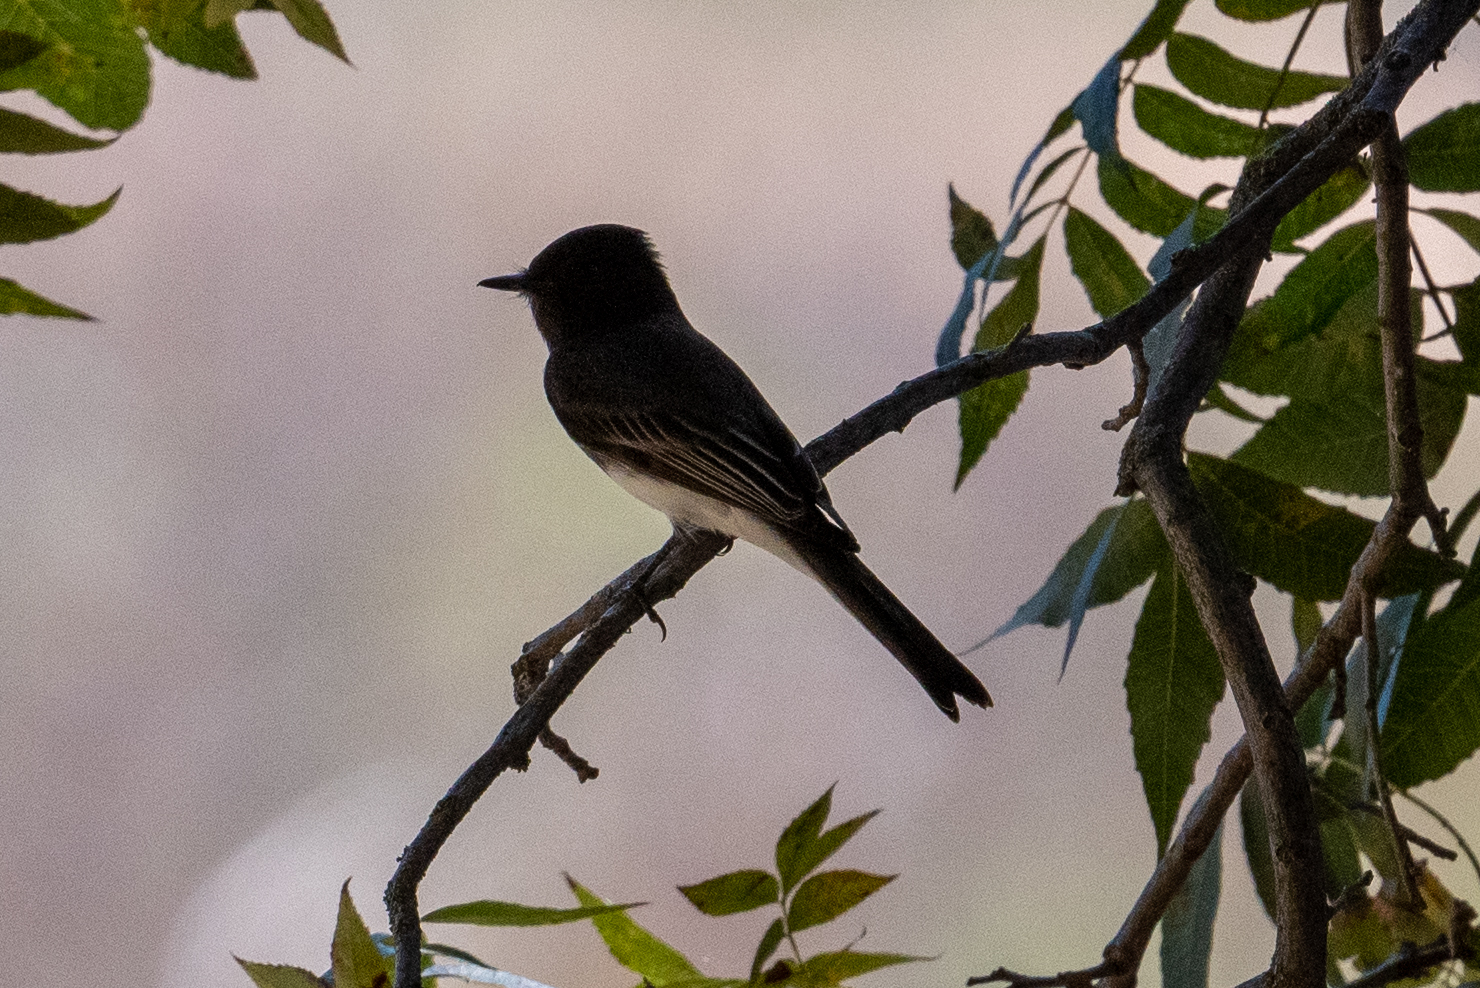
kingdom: Animalia
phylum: Chordata
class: Aves
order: Passeriformes
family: Tyrannidae
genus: Sayornis
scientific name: Sayornis nigricans
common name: Black phoebe
